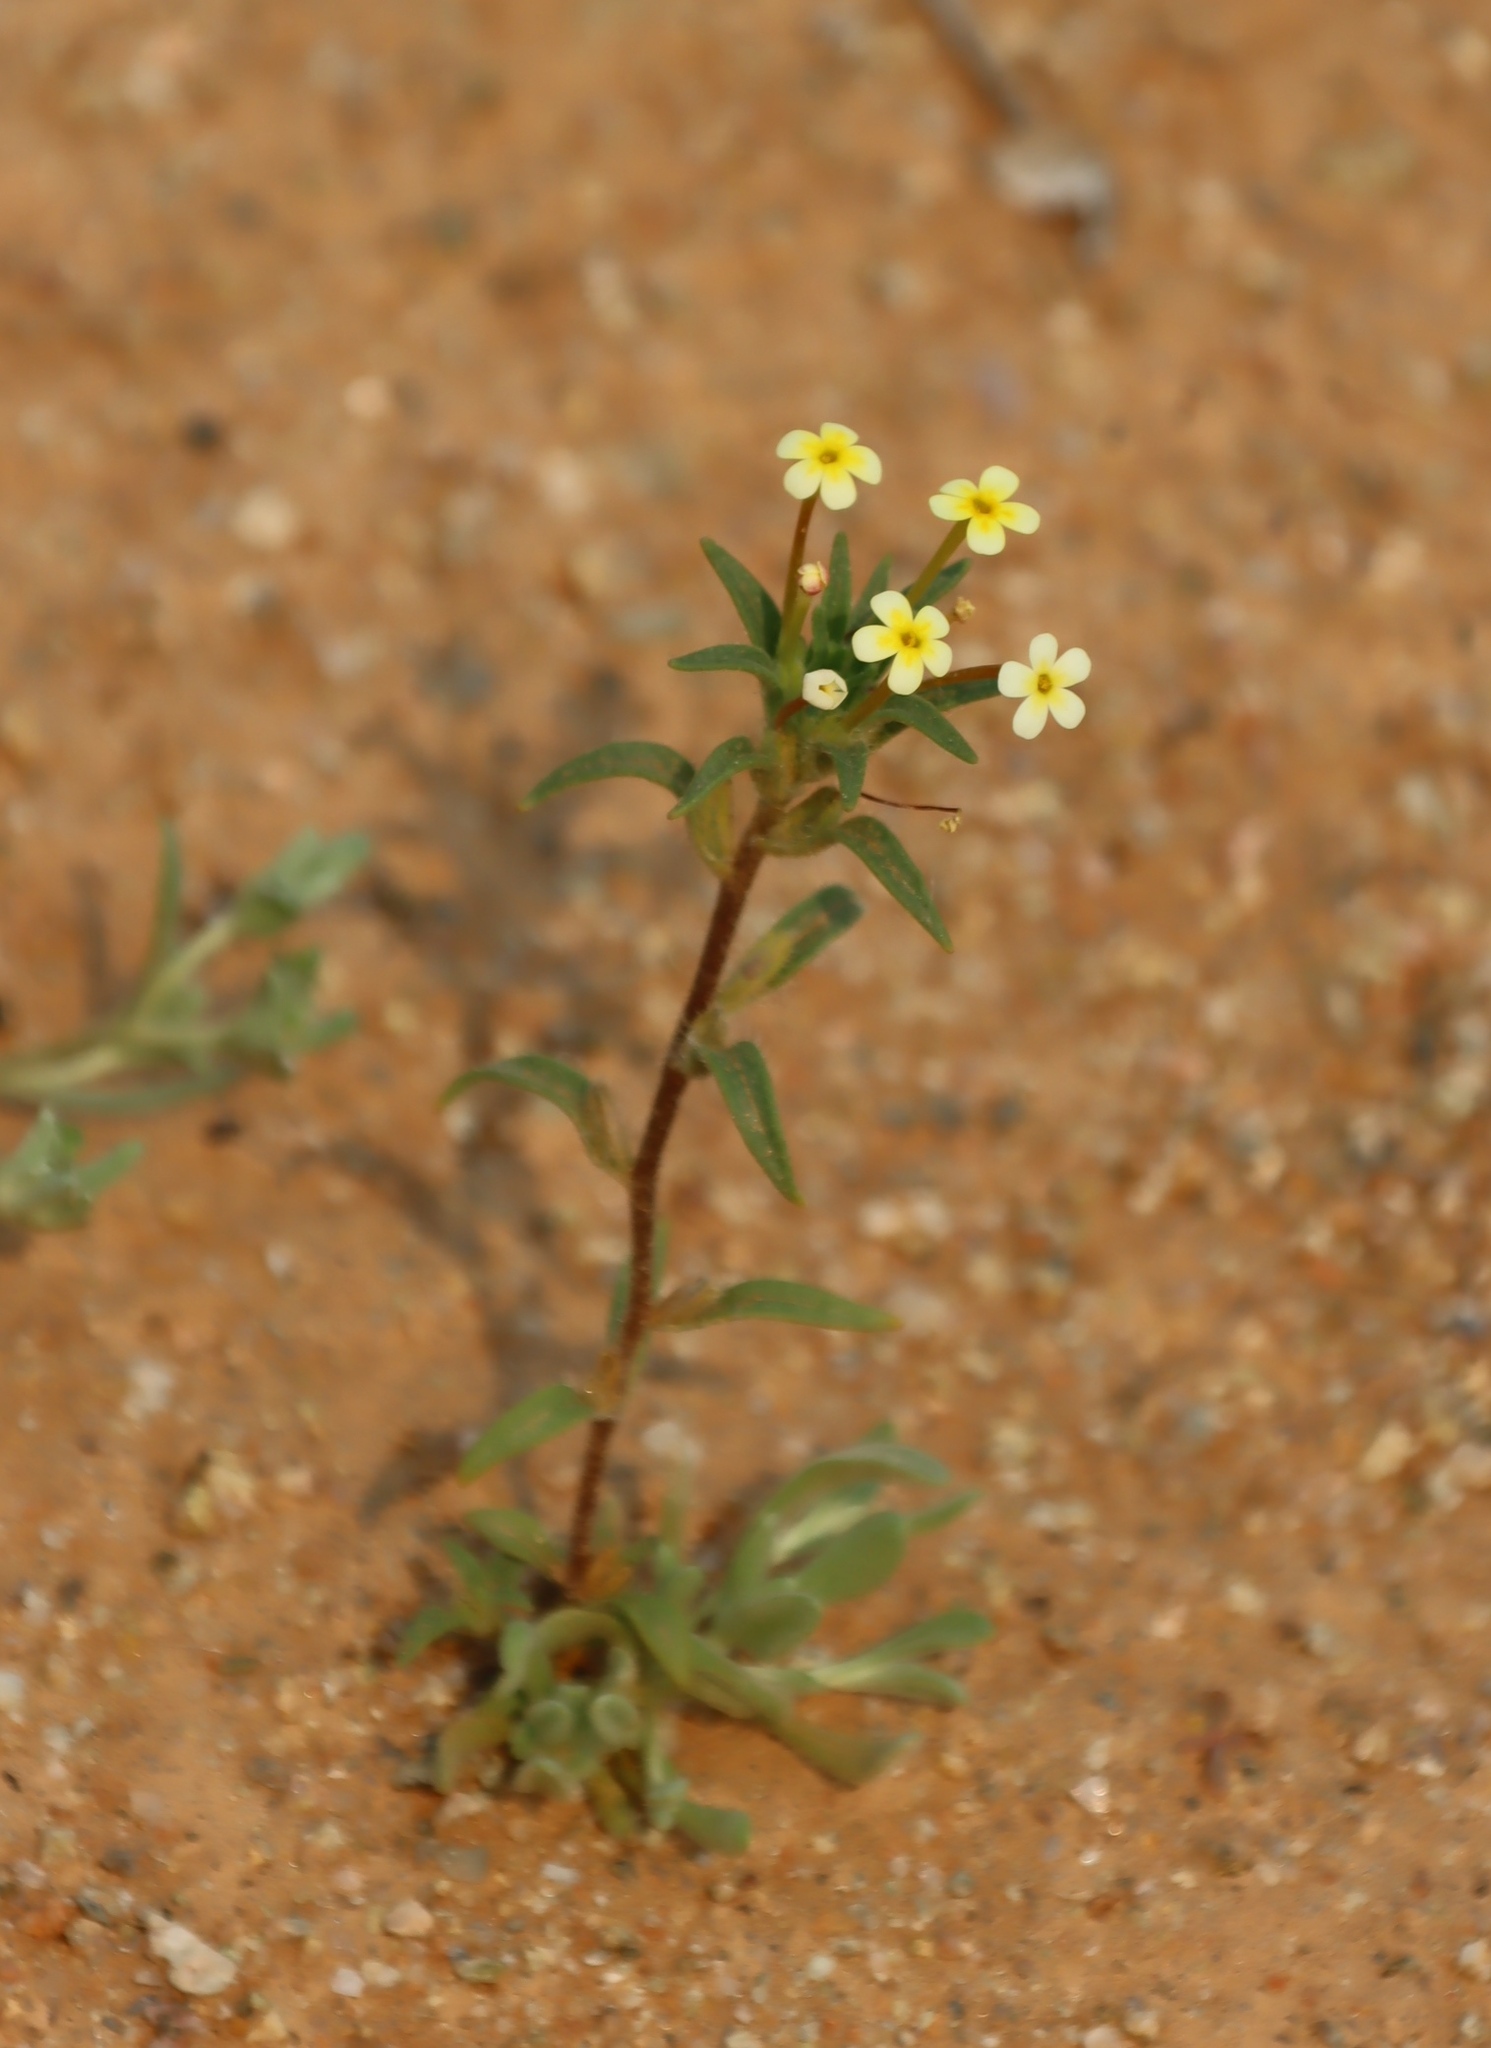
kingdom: Plantae
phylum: Tracheophyta
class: Magnoliopsida
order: Lamiales
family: Scrophulariaceae
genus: Zaluzianskya
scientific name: Zaluzianskya benthamiana
